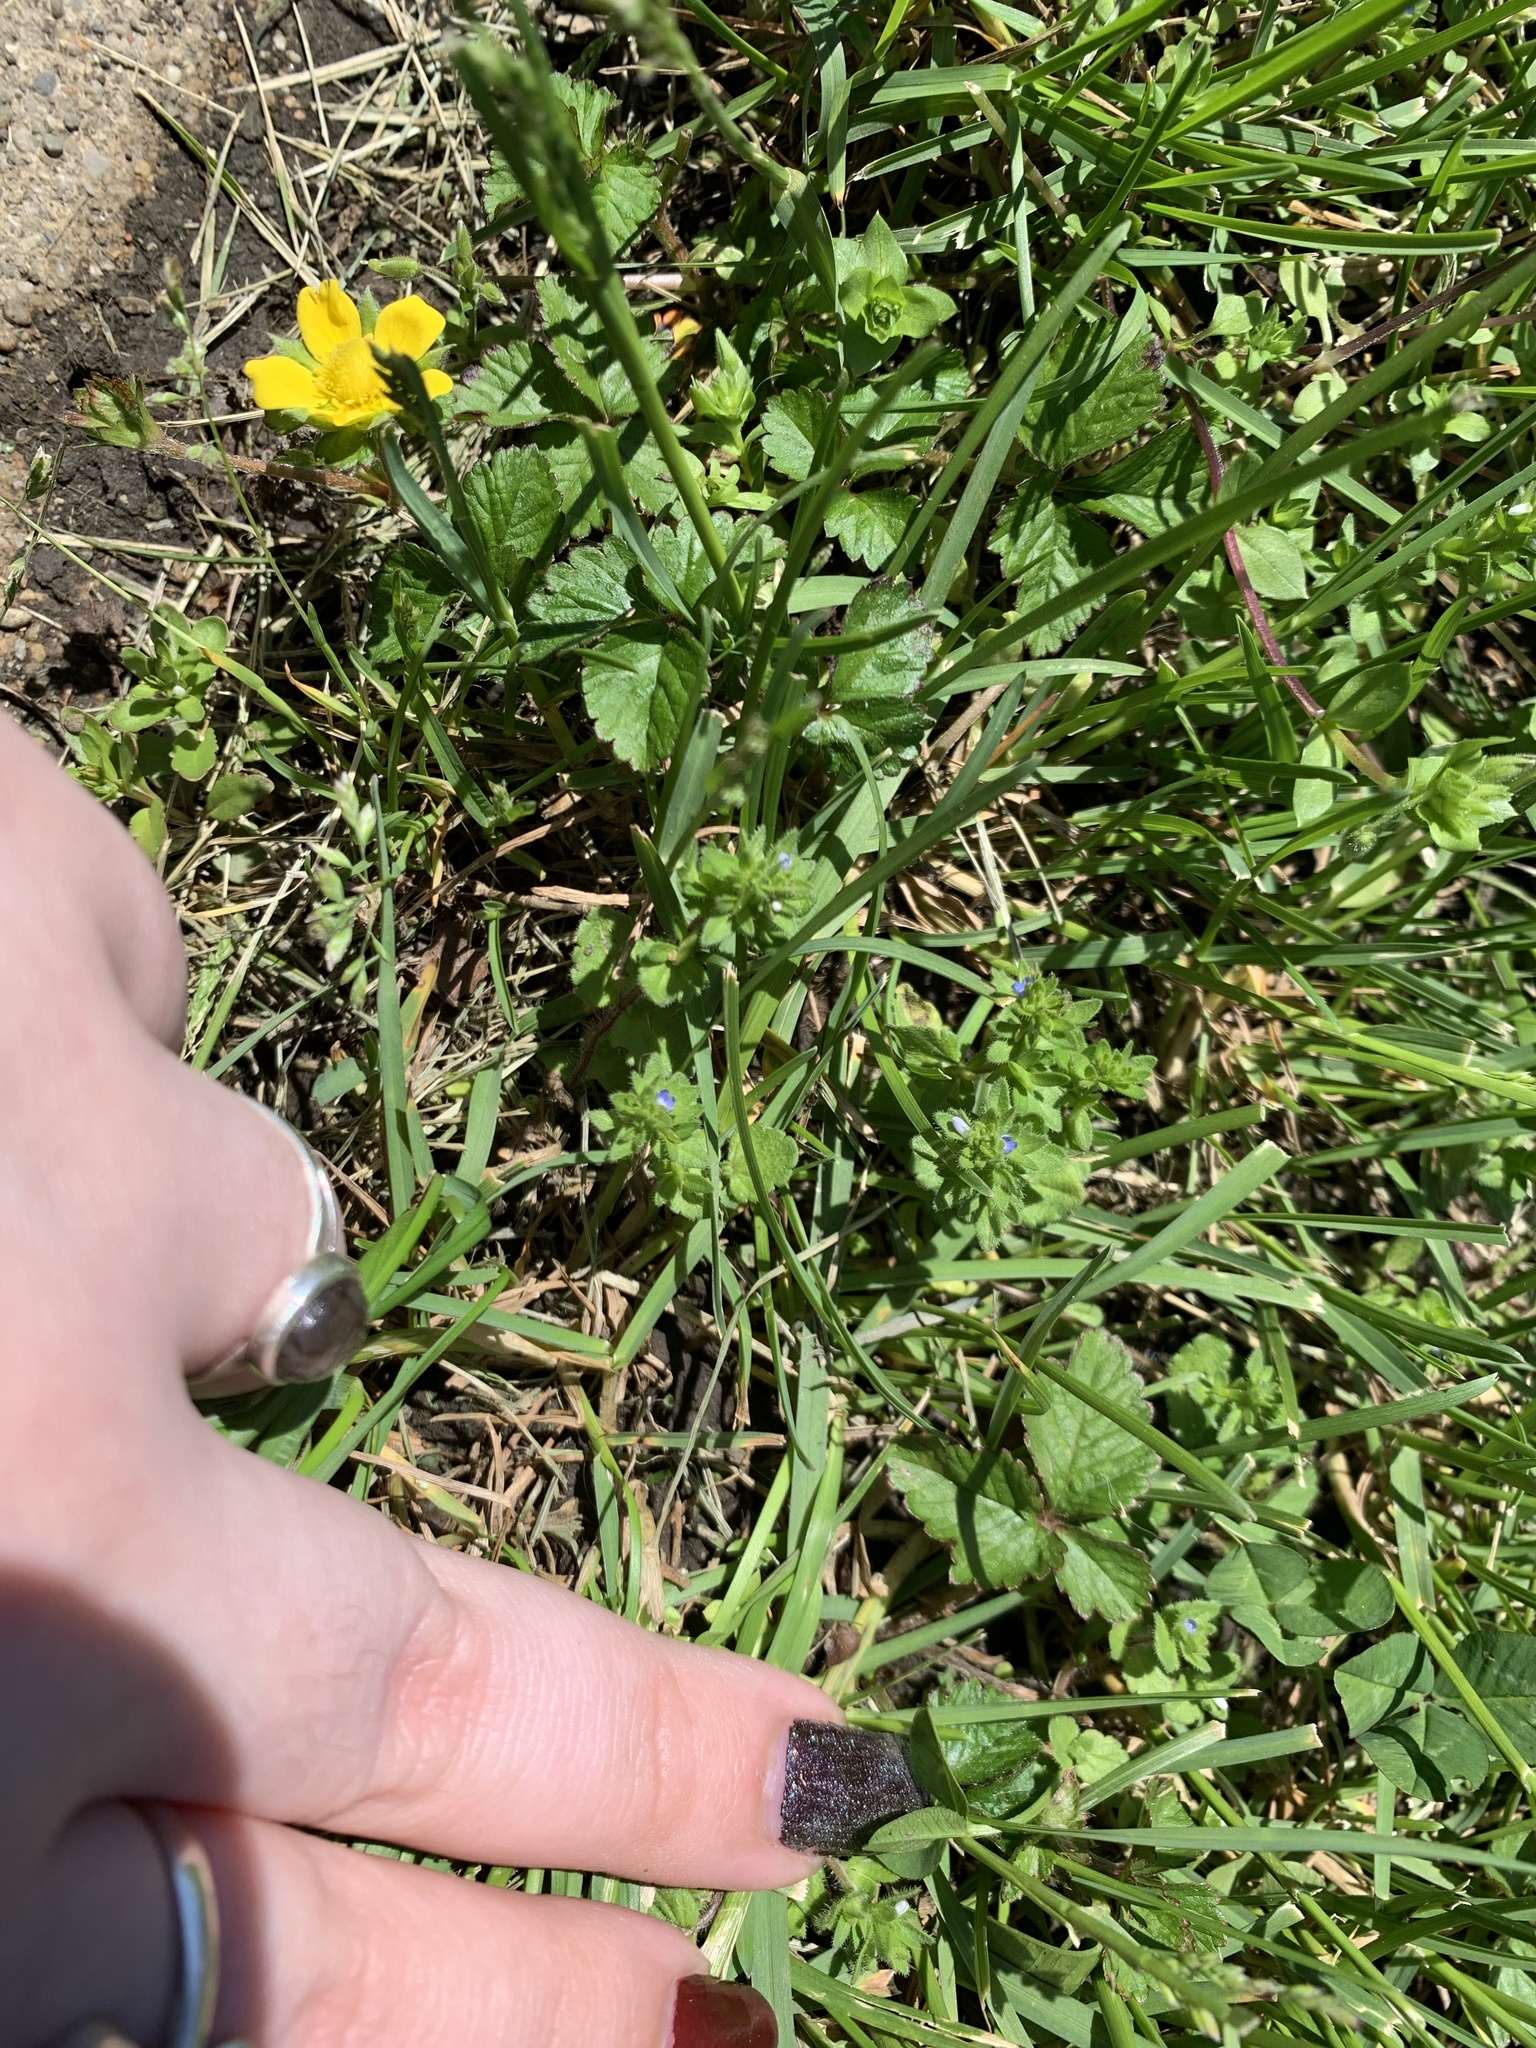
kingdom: Plantae
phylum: Tracheophyta
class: Magnoliopsida
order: Lamiales
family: Plantaginaceae
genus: Veronica
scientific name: Veronica arvensis
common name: Corn speedwell
